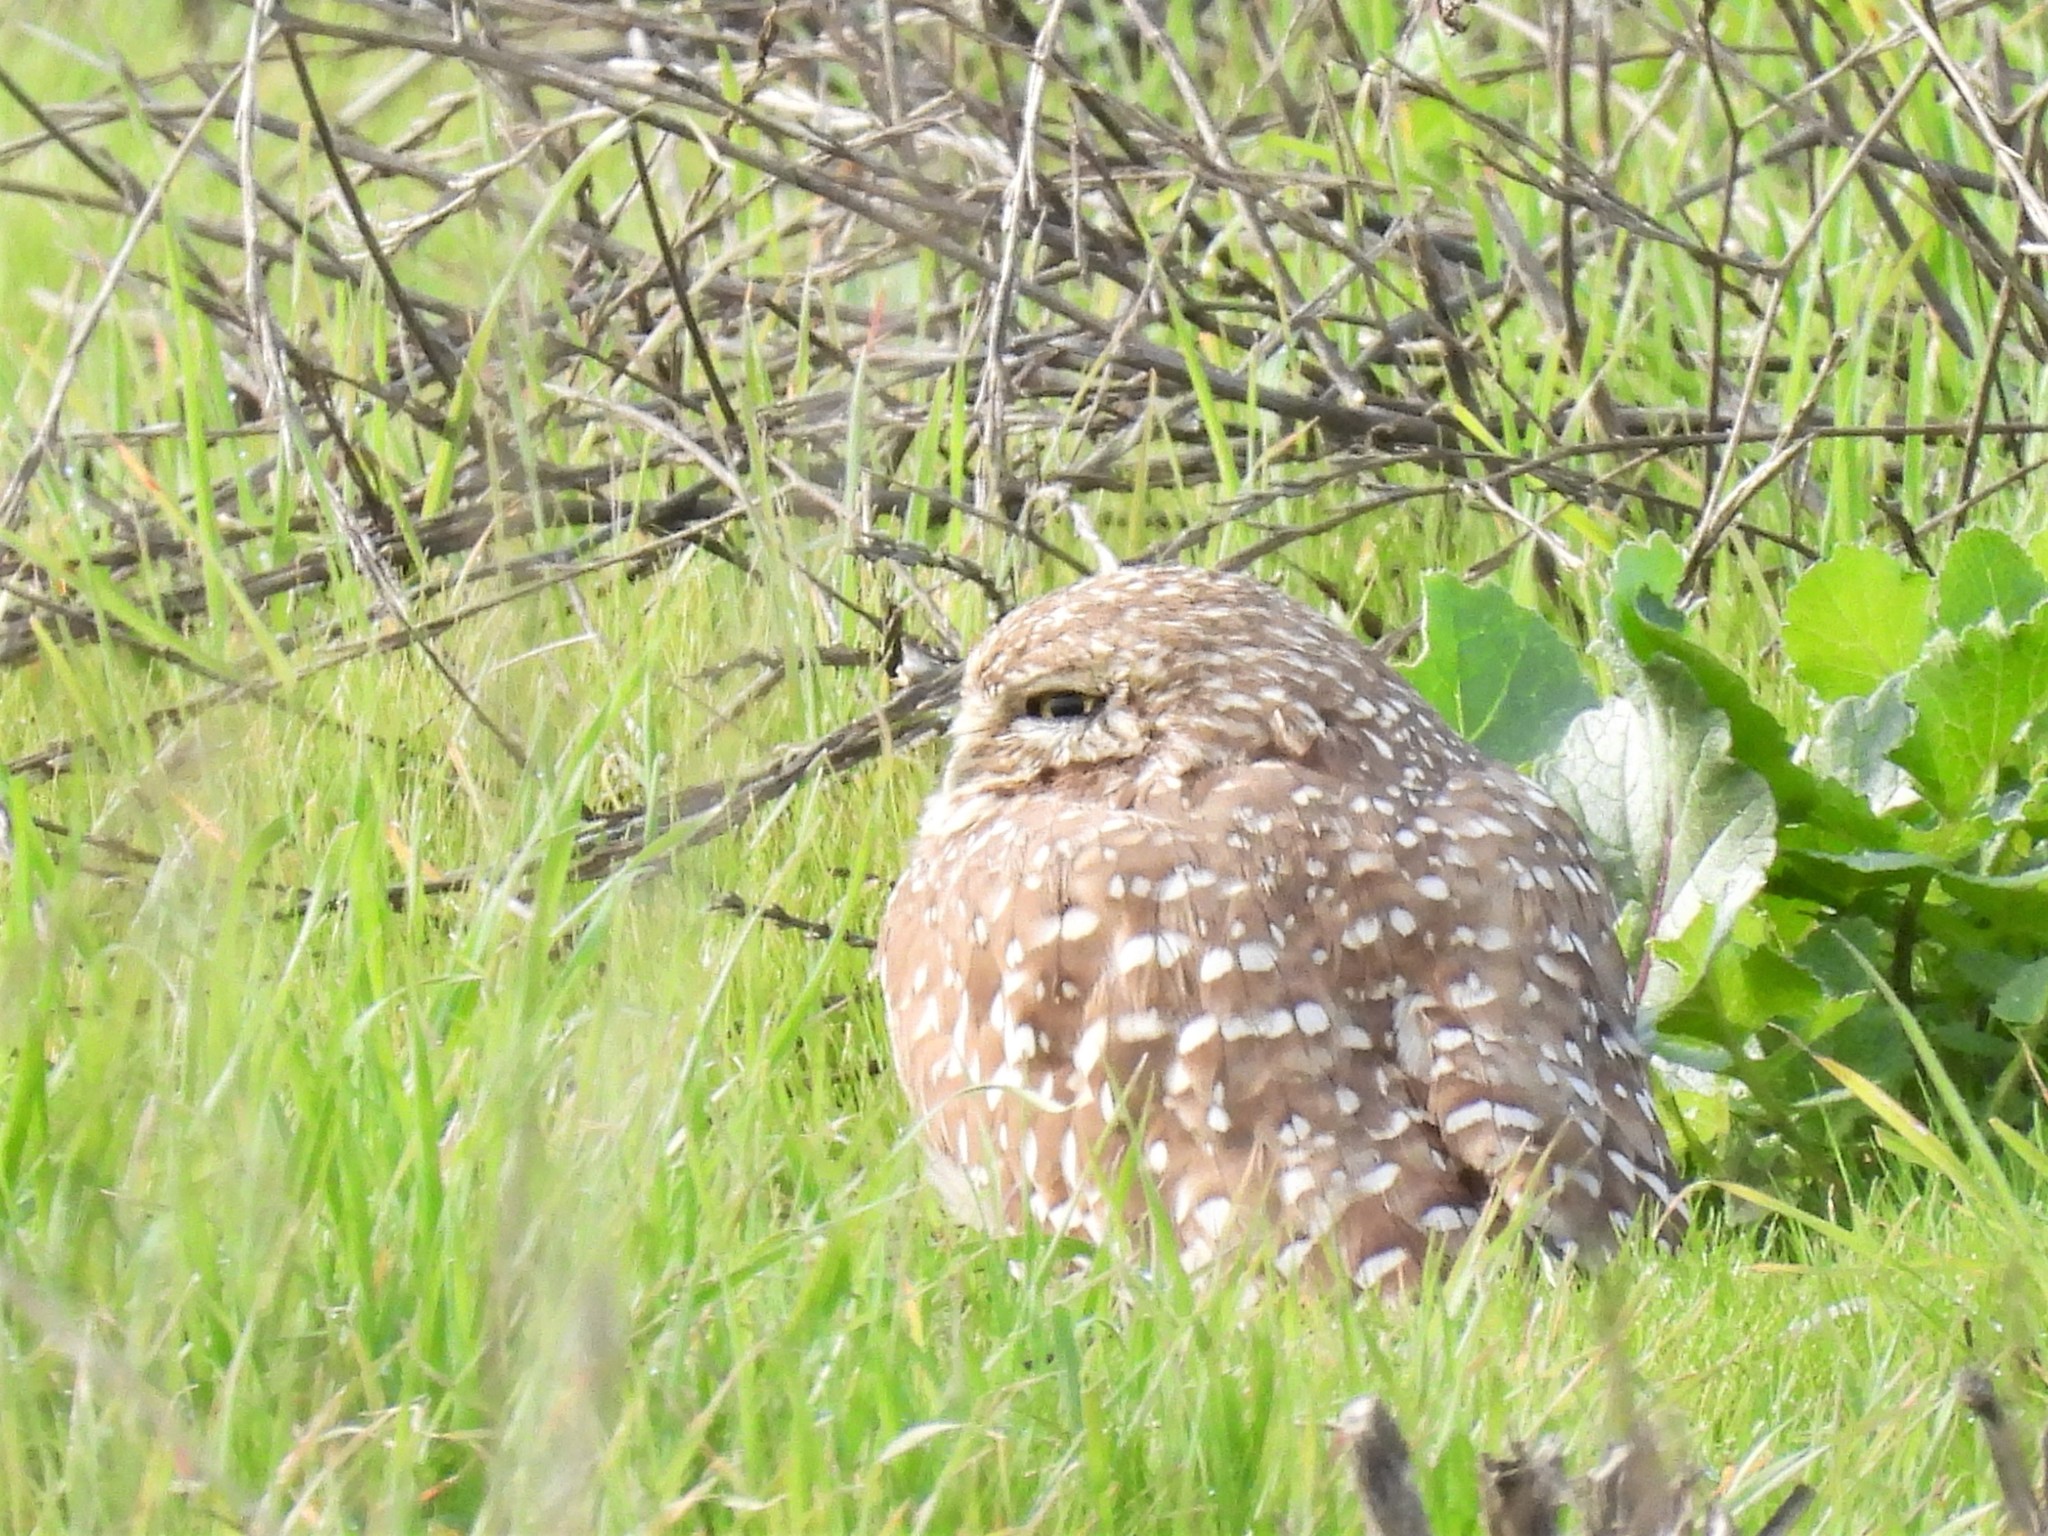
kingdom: Animalia
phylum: Chordata
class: Aves
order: Strigiformes
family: Strigidae
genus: Athene
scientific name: Athene cunicularia
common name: Burrowing owl
